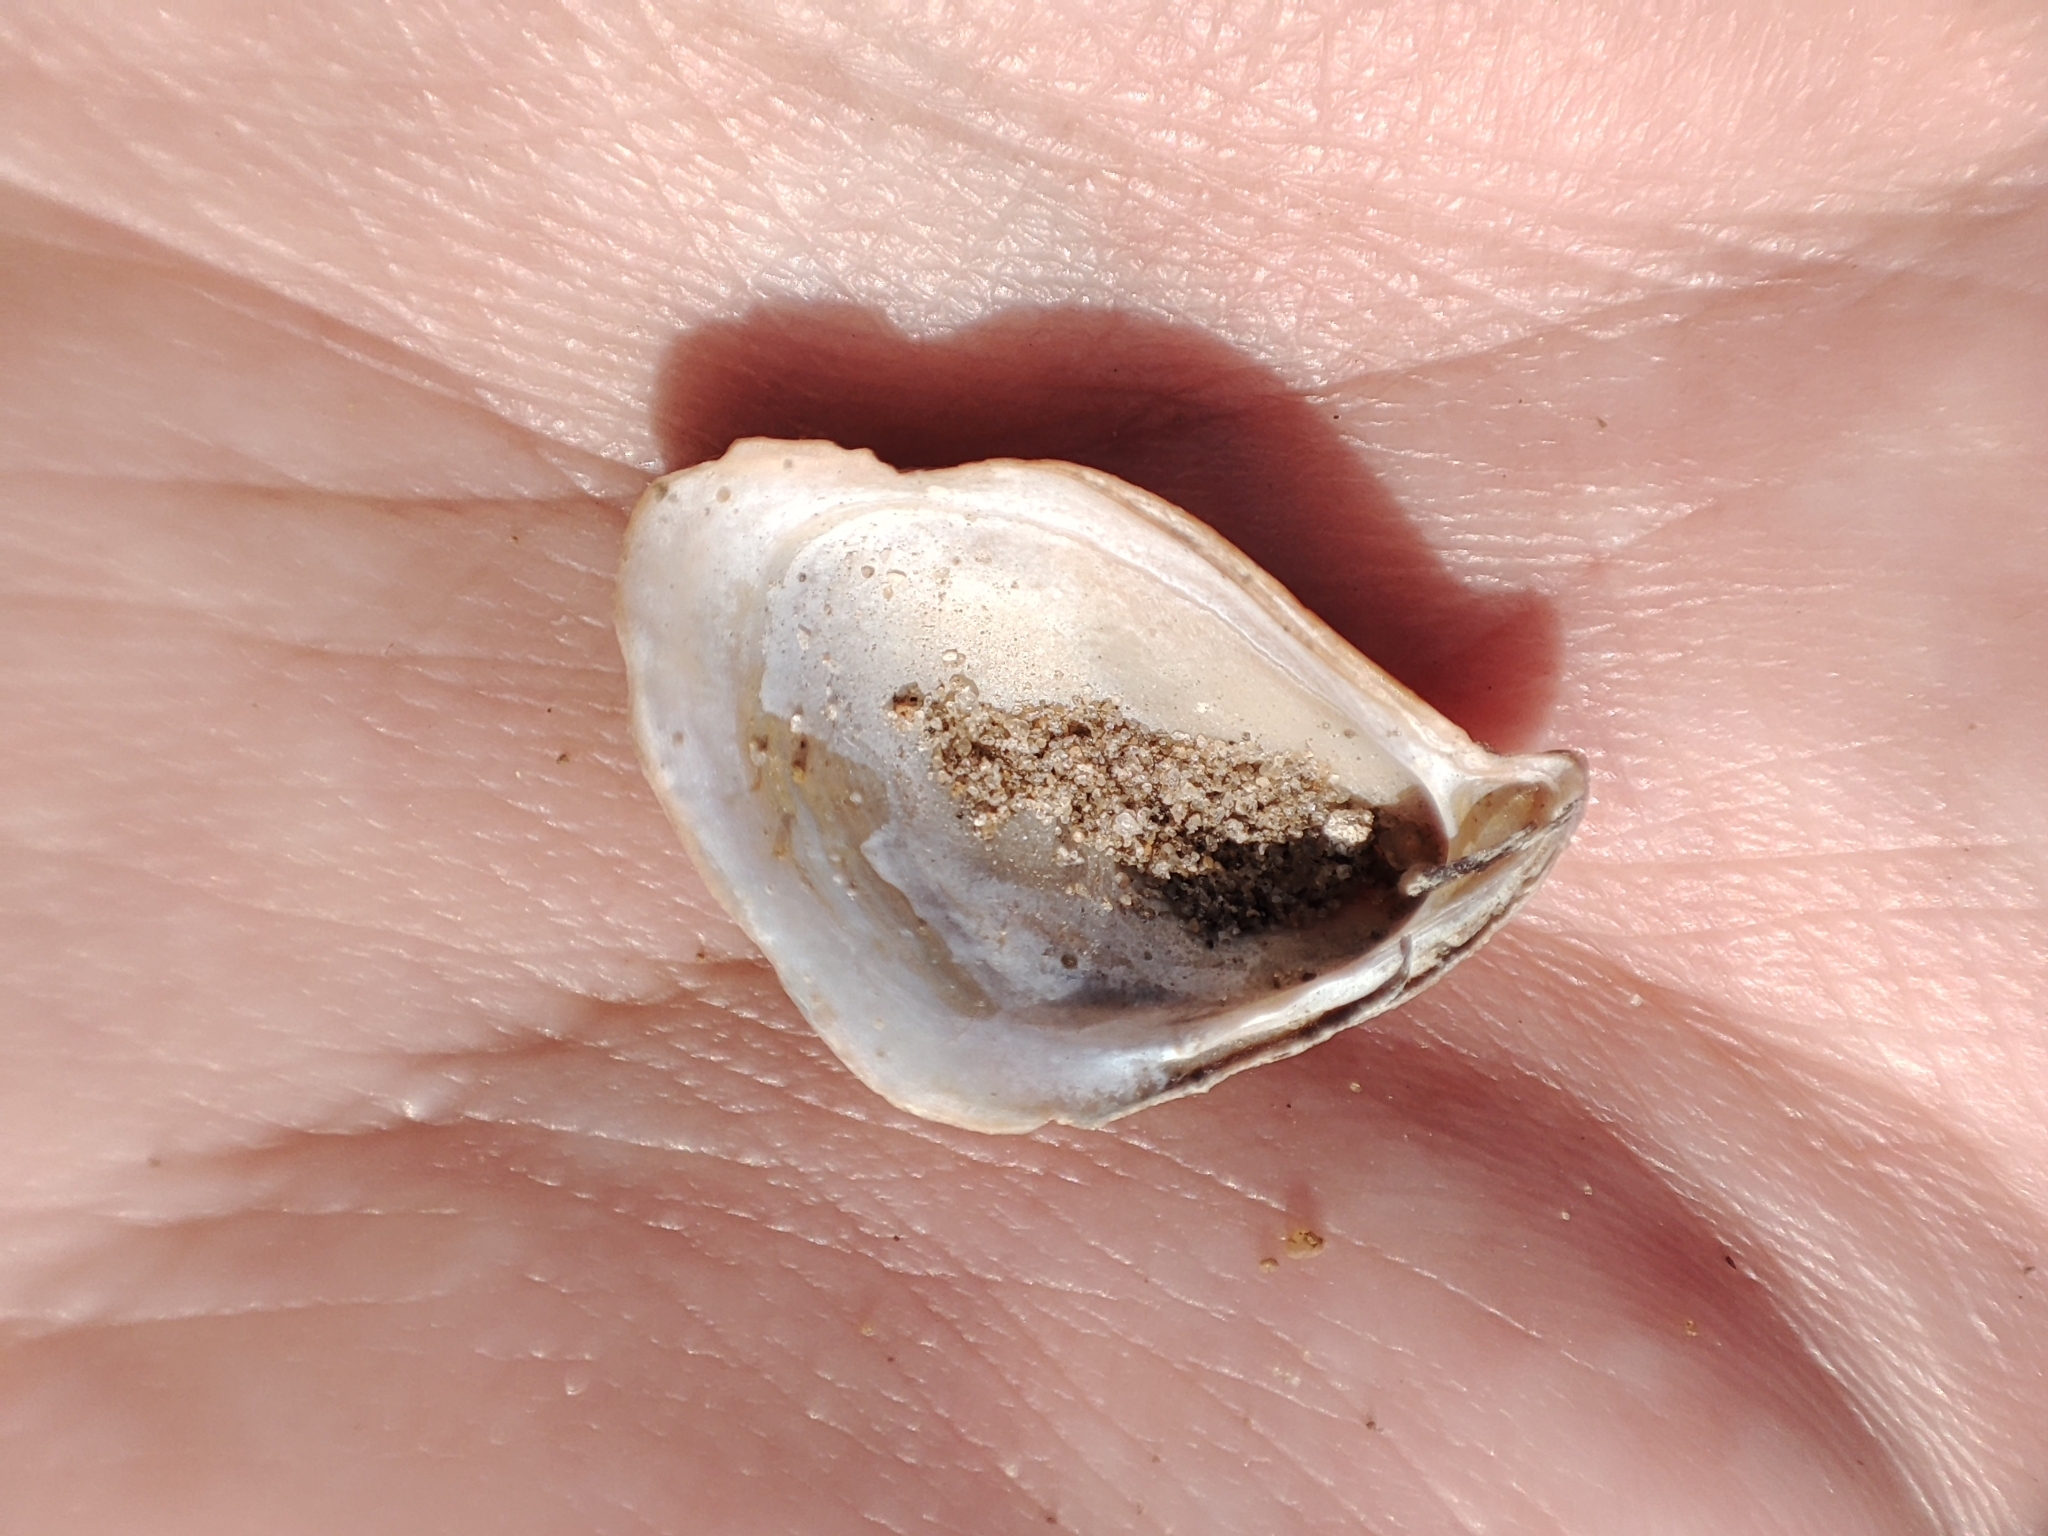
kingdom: Animalia
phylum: Mollusca
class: Bivalvia
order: Myida
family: Dreissenidae
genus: Dreissena
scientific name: Dreissena bugensis
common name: Quagga mussel
